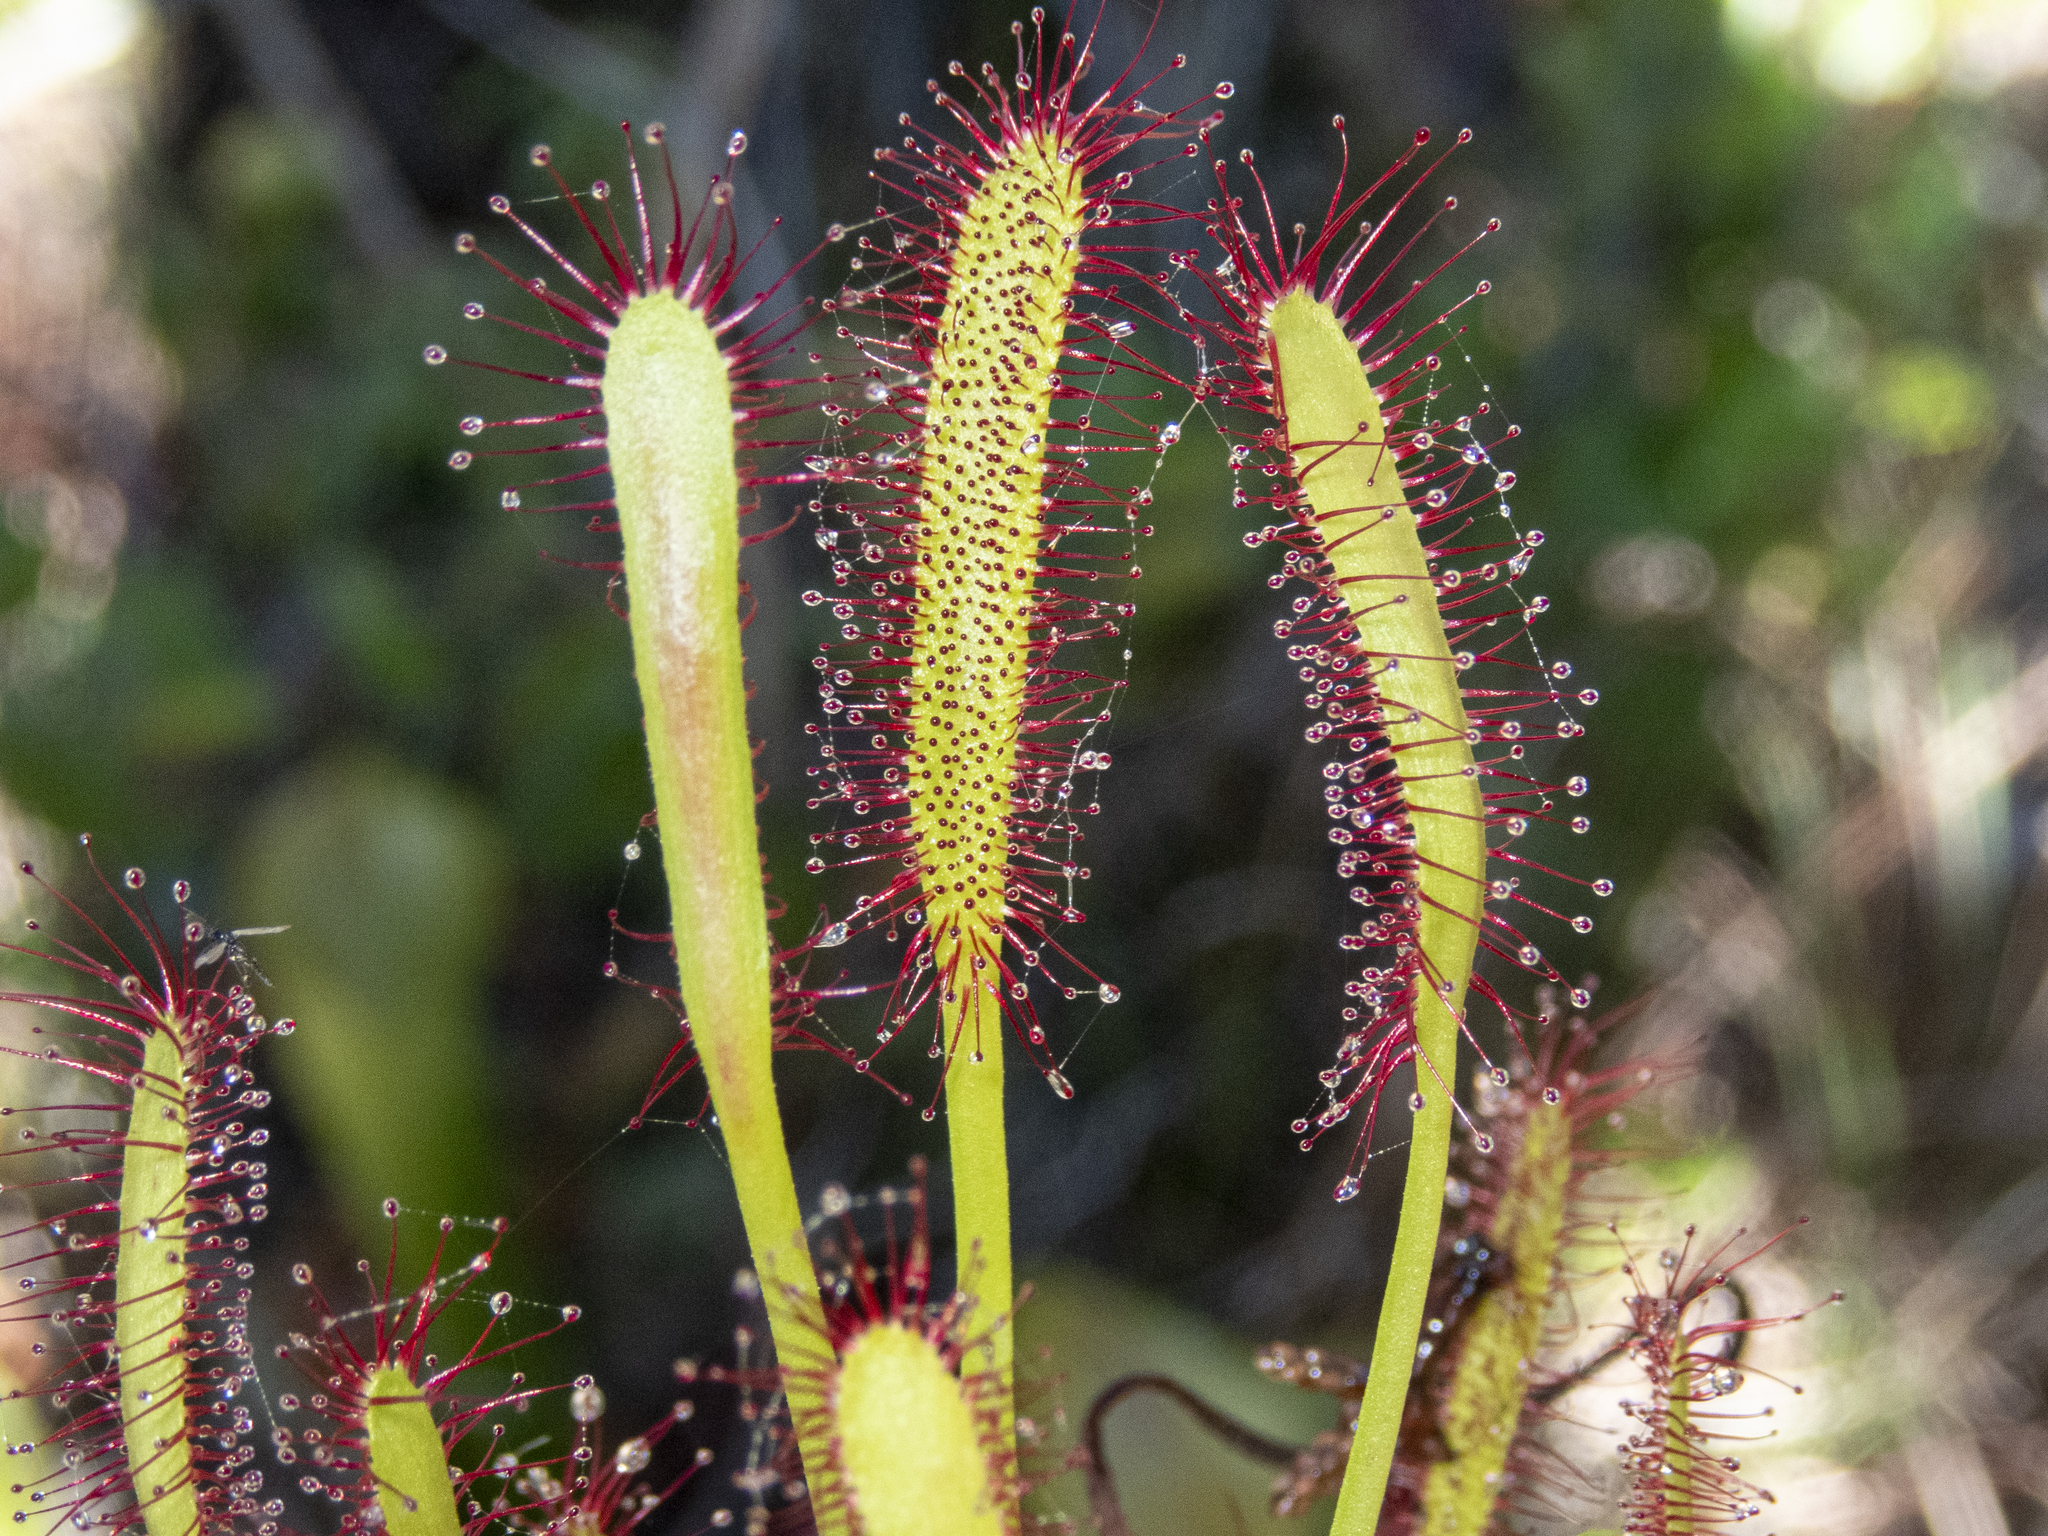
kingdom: Plantae
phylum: Tracheophyta
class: Magnoliopsida
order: Caryophyllales
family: Droseraceae
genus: Drosera
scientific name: Drosera capensis
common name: Cape sundew
